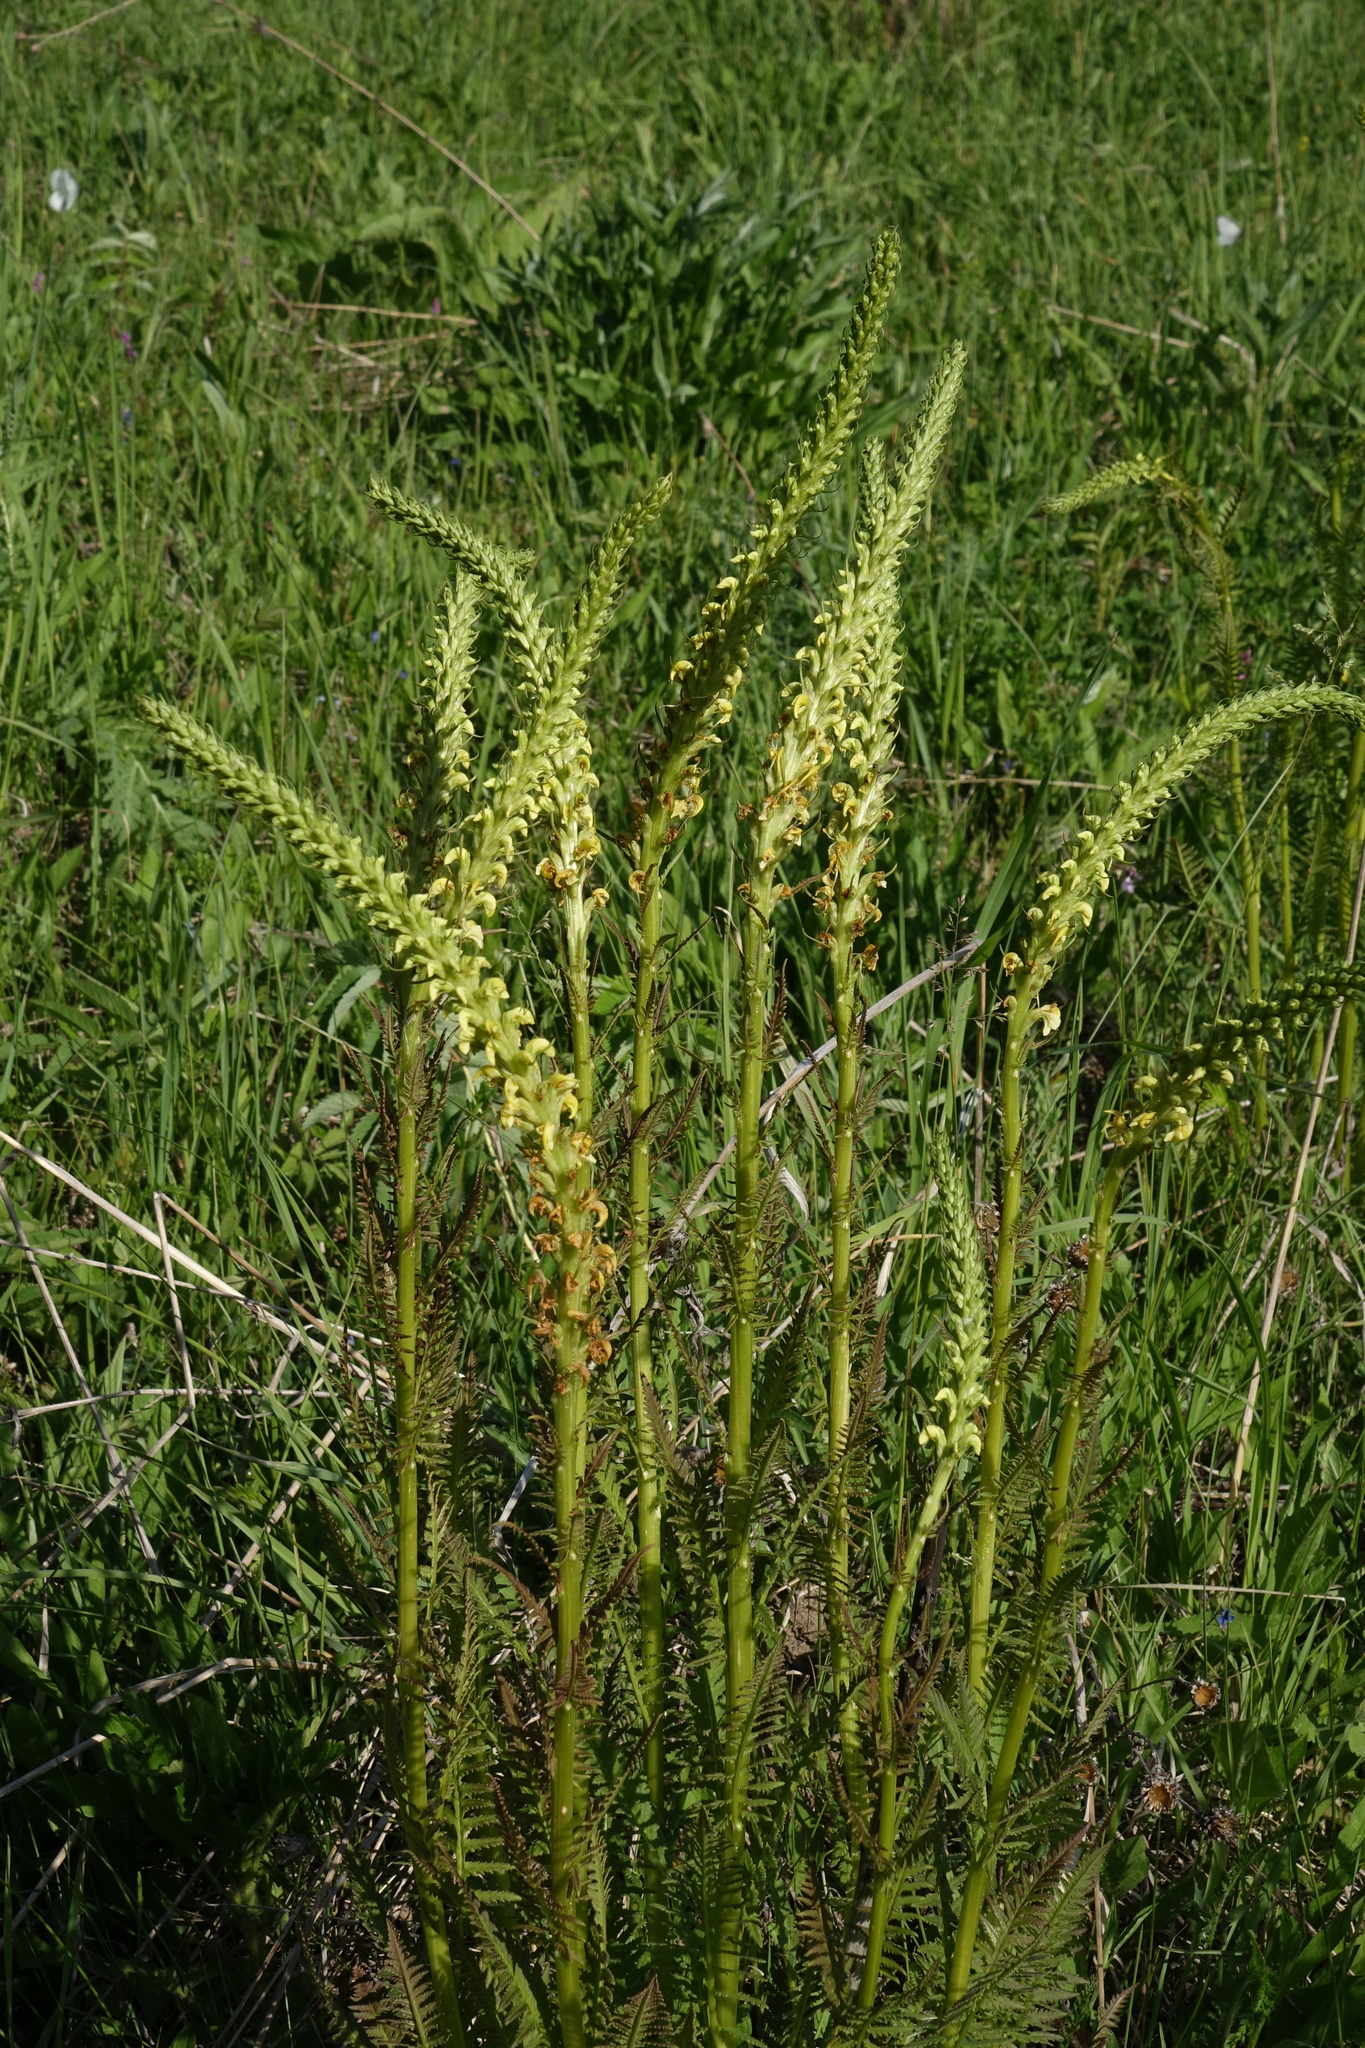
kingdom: Plantae
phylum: Tracheophyta
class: Magnoliopsida
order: Lamiales
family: Orobanchaceae
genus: Pedicularis
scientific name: Pedicularis incarnata
